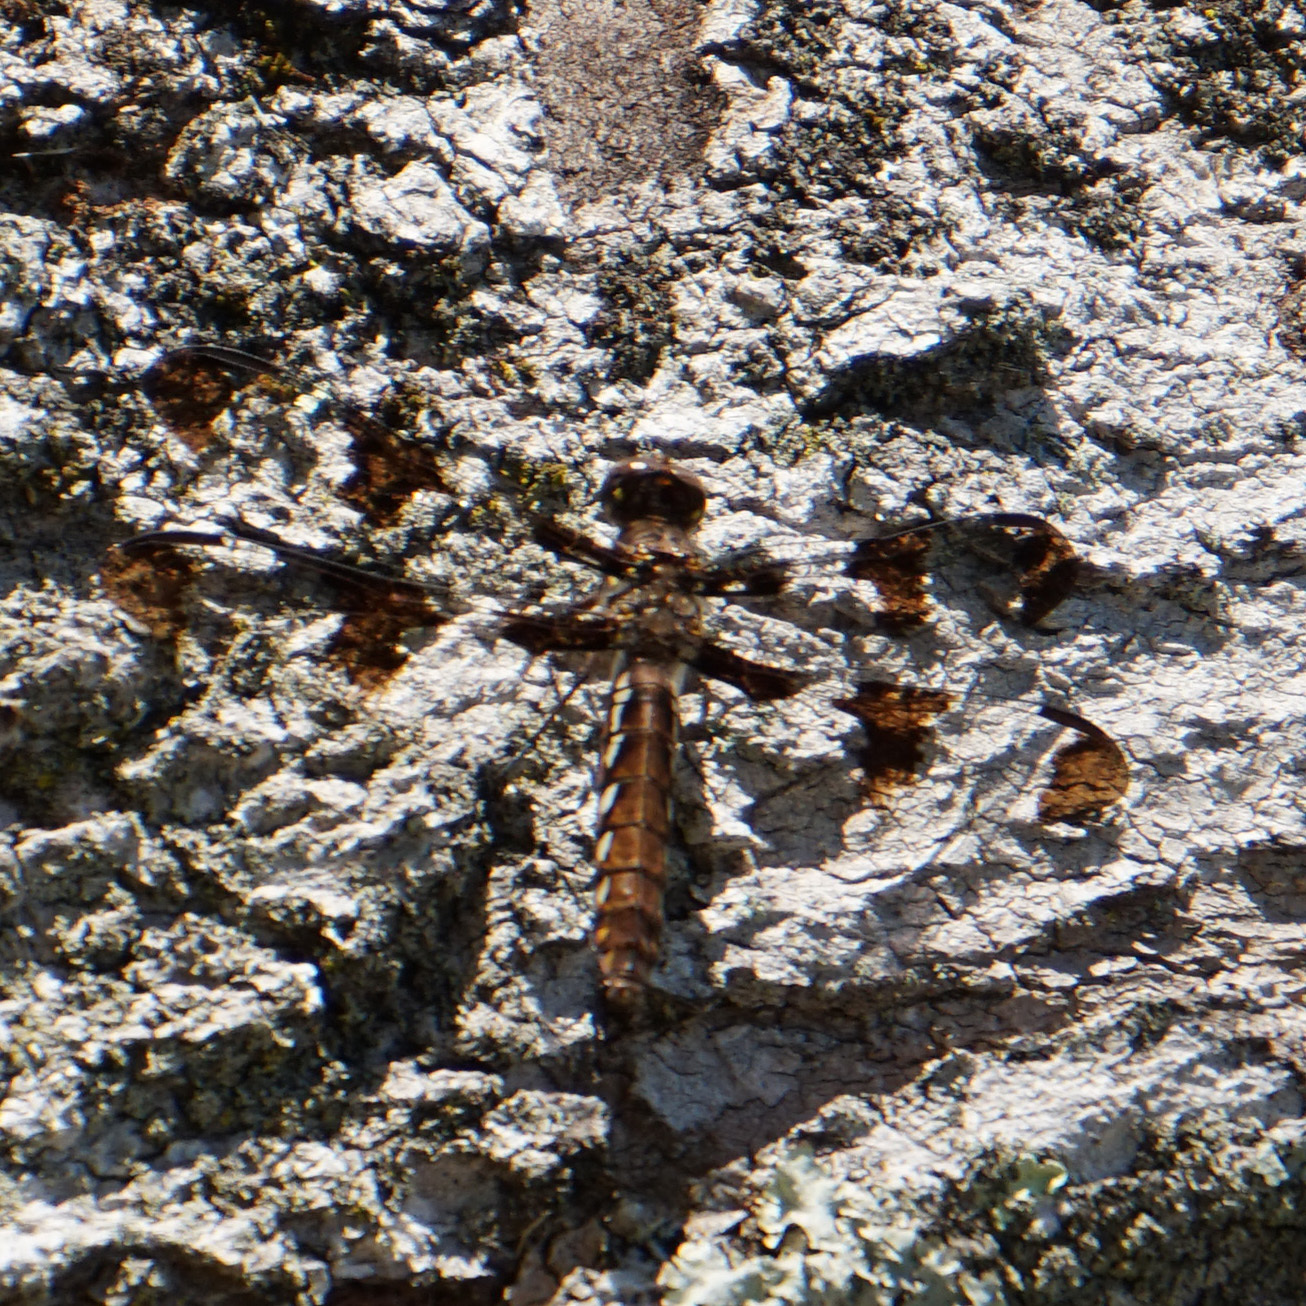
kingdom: Animalia
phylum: Arthropoda
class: Insecta
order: Odonata
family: Libellulidae
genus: Plathemis
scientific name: Plathemis lydia
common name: Common whitetail
